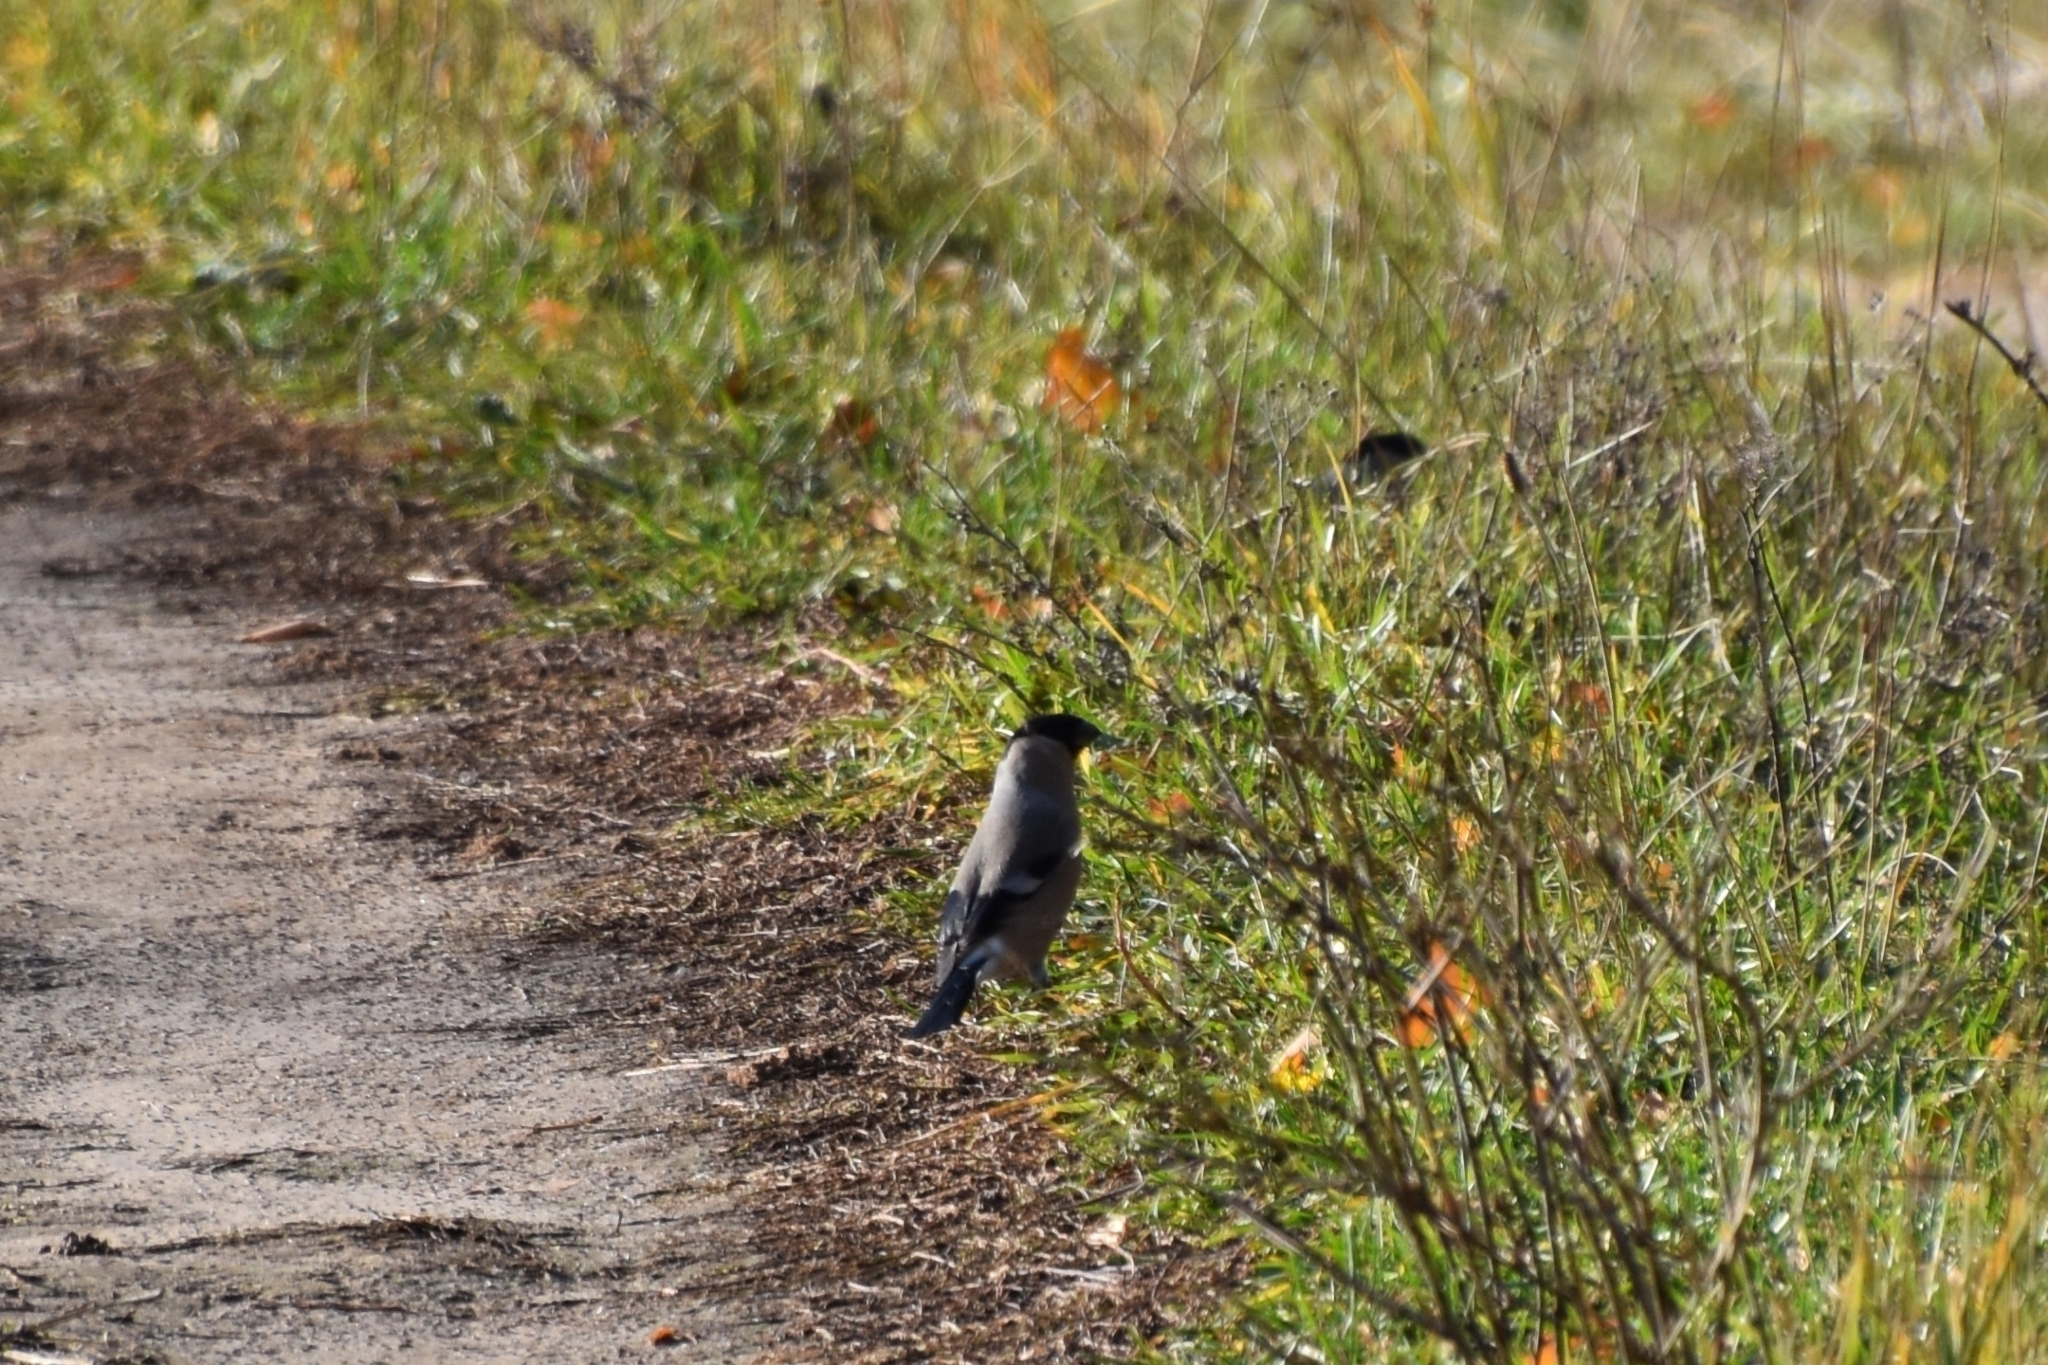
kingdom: Animalia
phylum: Chordata
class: Aves
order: Passeriformes
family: Fringillidae
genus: Pyrrhula
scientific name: Pyrrhula pyrrhula
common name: Eurasian bullfinch
